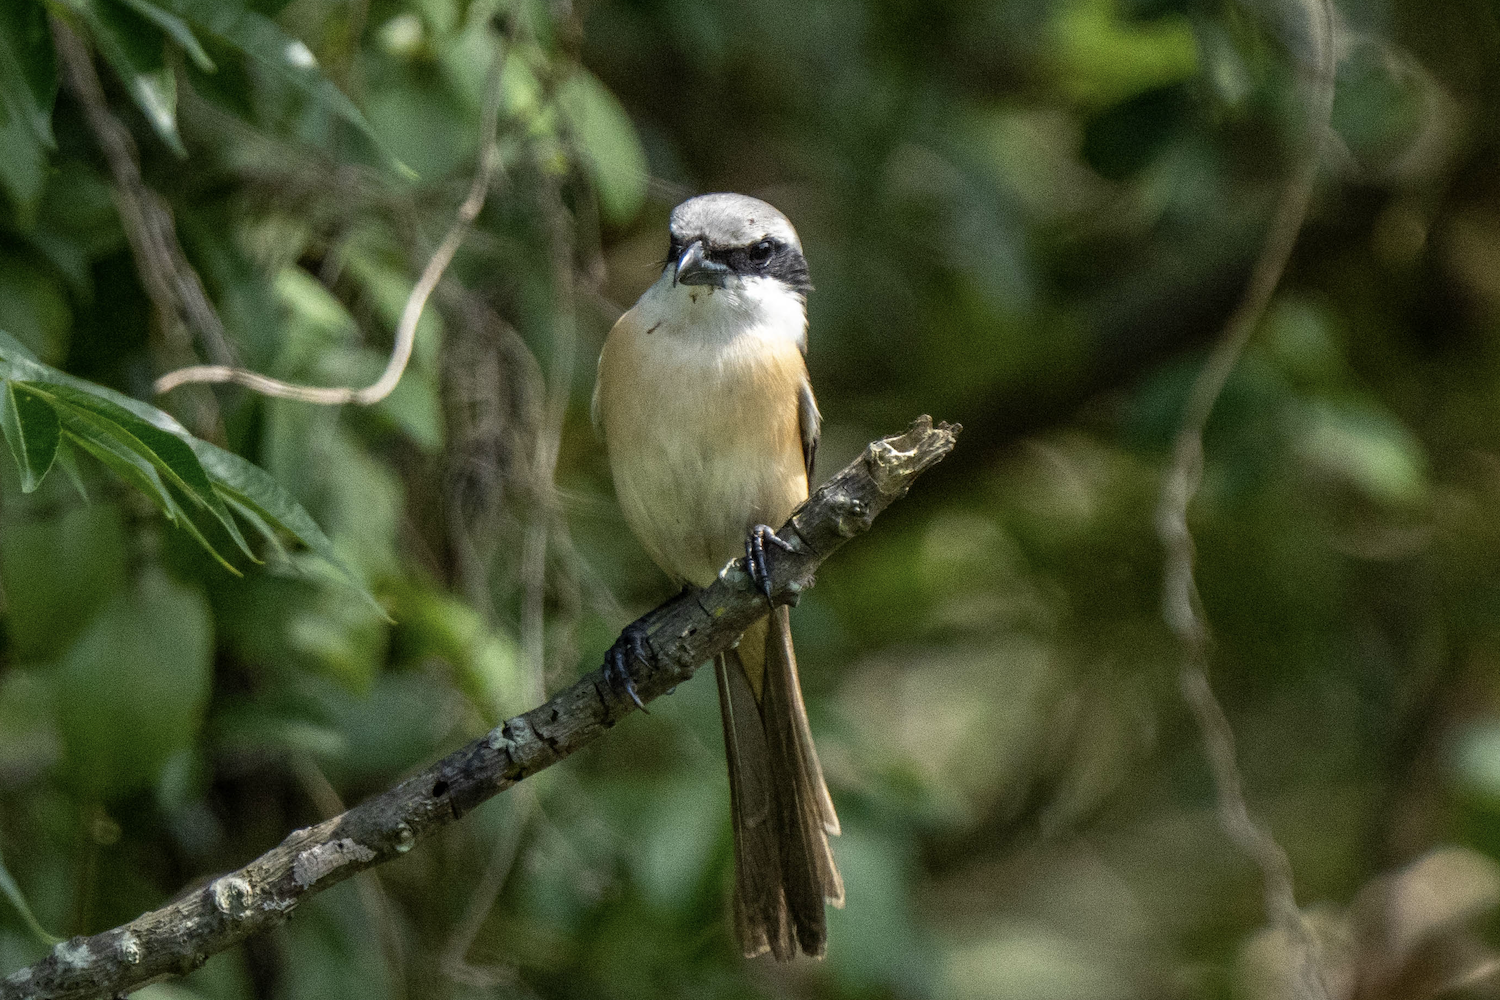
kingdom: Animalia
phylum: Chordata
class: Aves
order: Passeriformes
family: Laniidae
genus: Lanius
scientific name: Lanius cristatus
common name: Brown shrike
